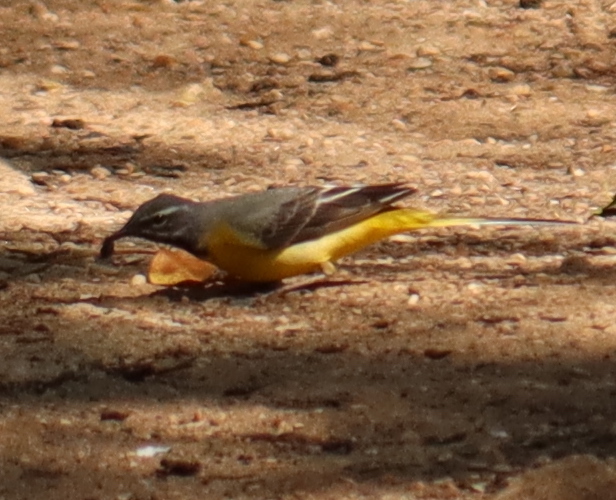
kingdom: Animalia
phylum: Chordata
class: Aves
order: Passeriformes
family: Motacillidae
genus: Motacilla
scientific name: Motacilla cinerea
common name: Grey wagtail
